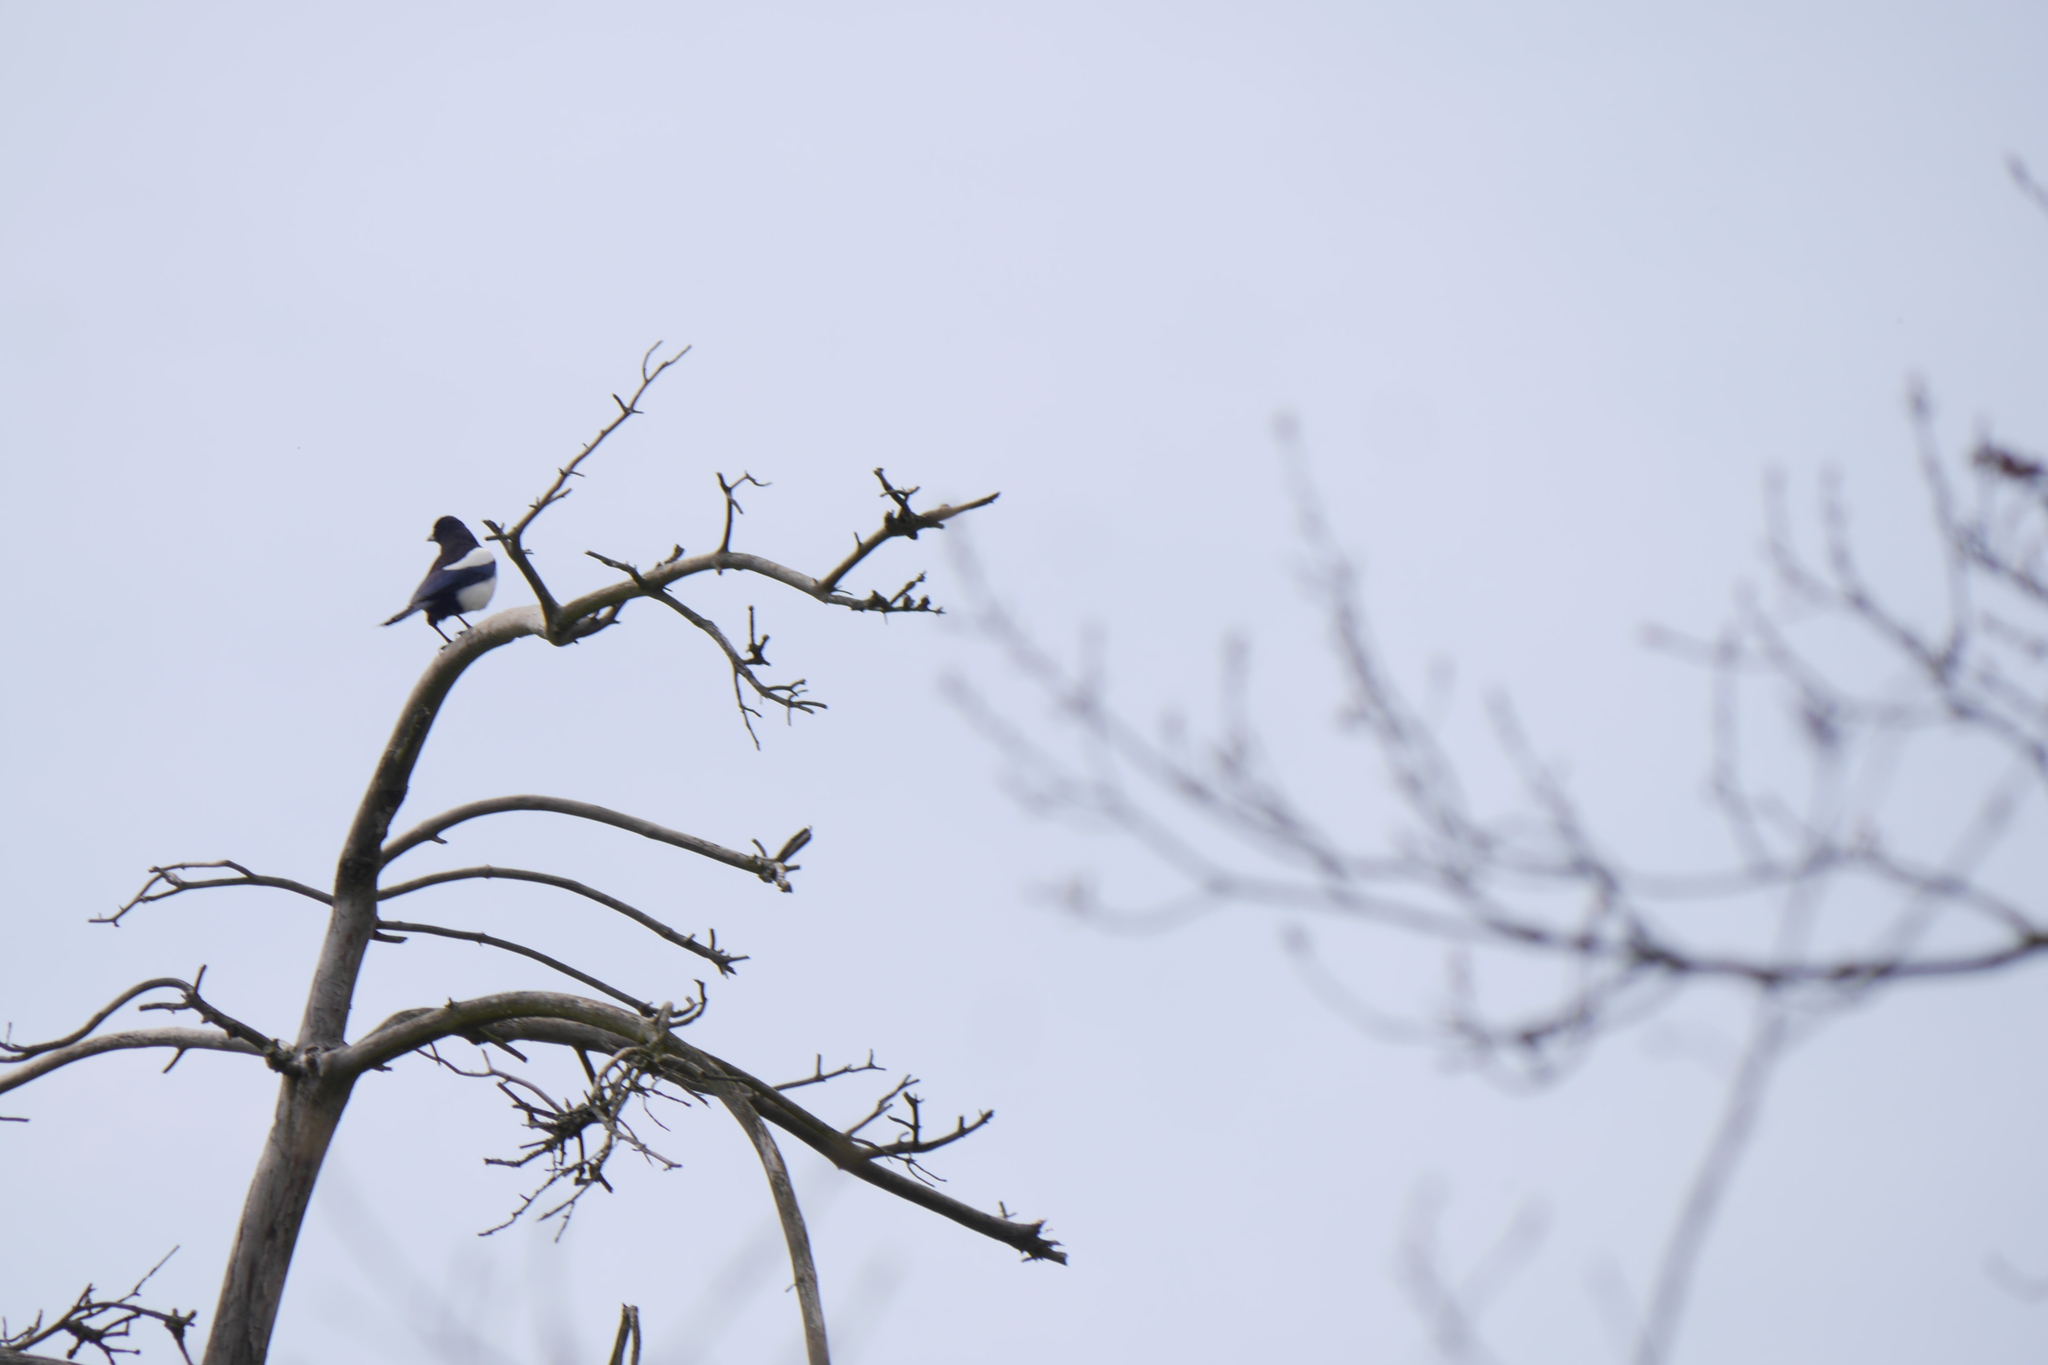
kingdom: Animalia
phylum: Chordata
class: Aves
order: Passeriformes
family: Corvidae
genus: Pica
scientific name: Pica pica
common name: Eurasian magpie
